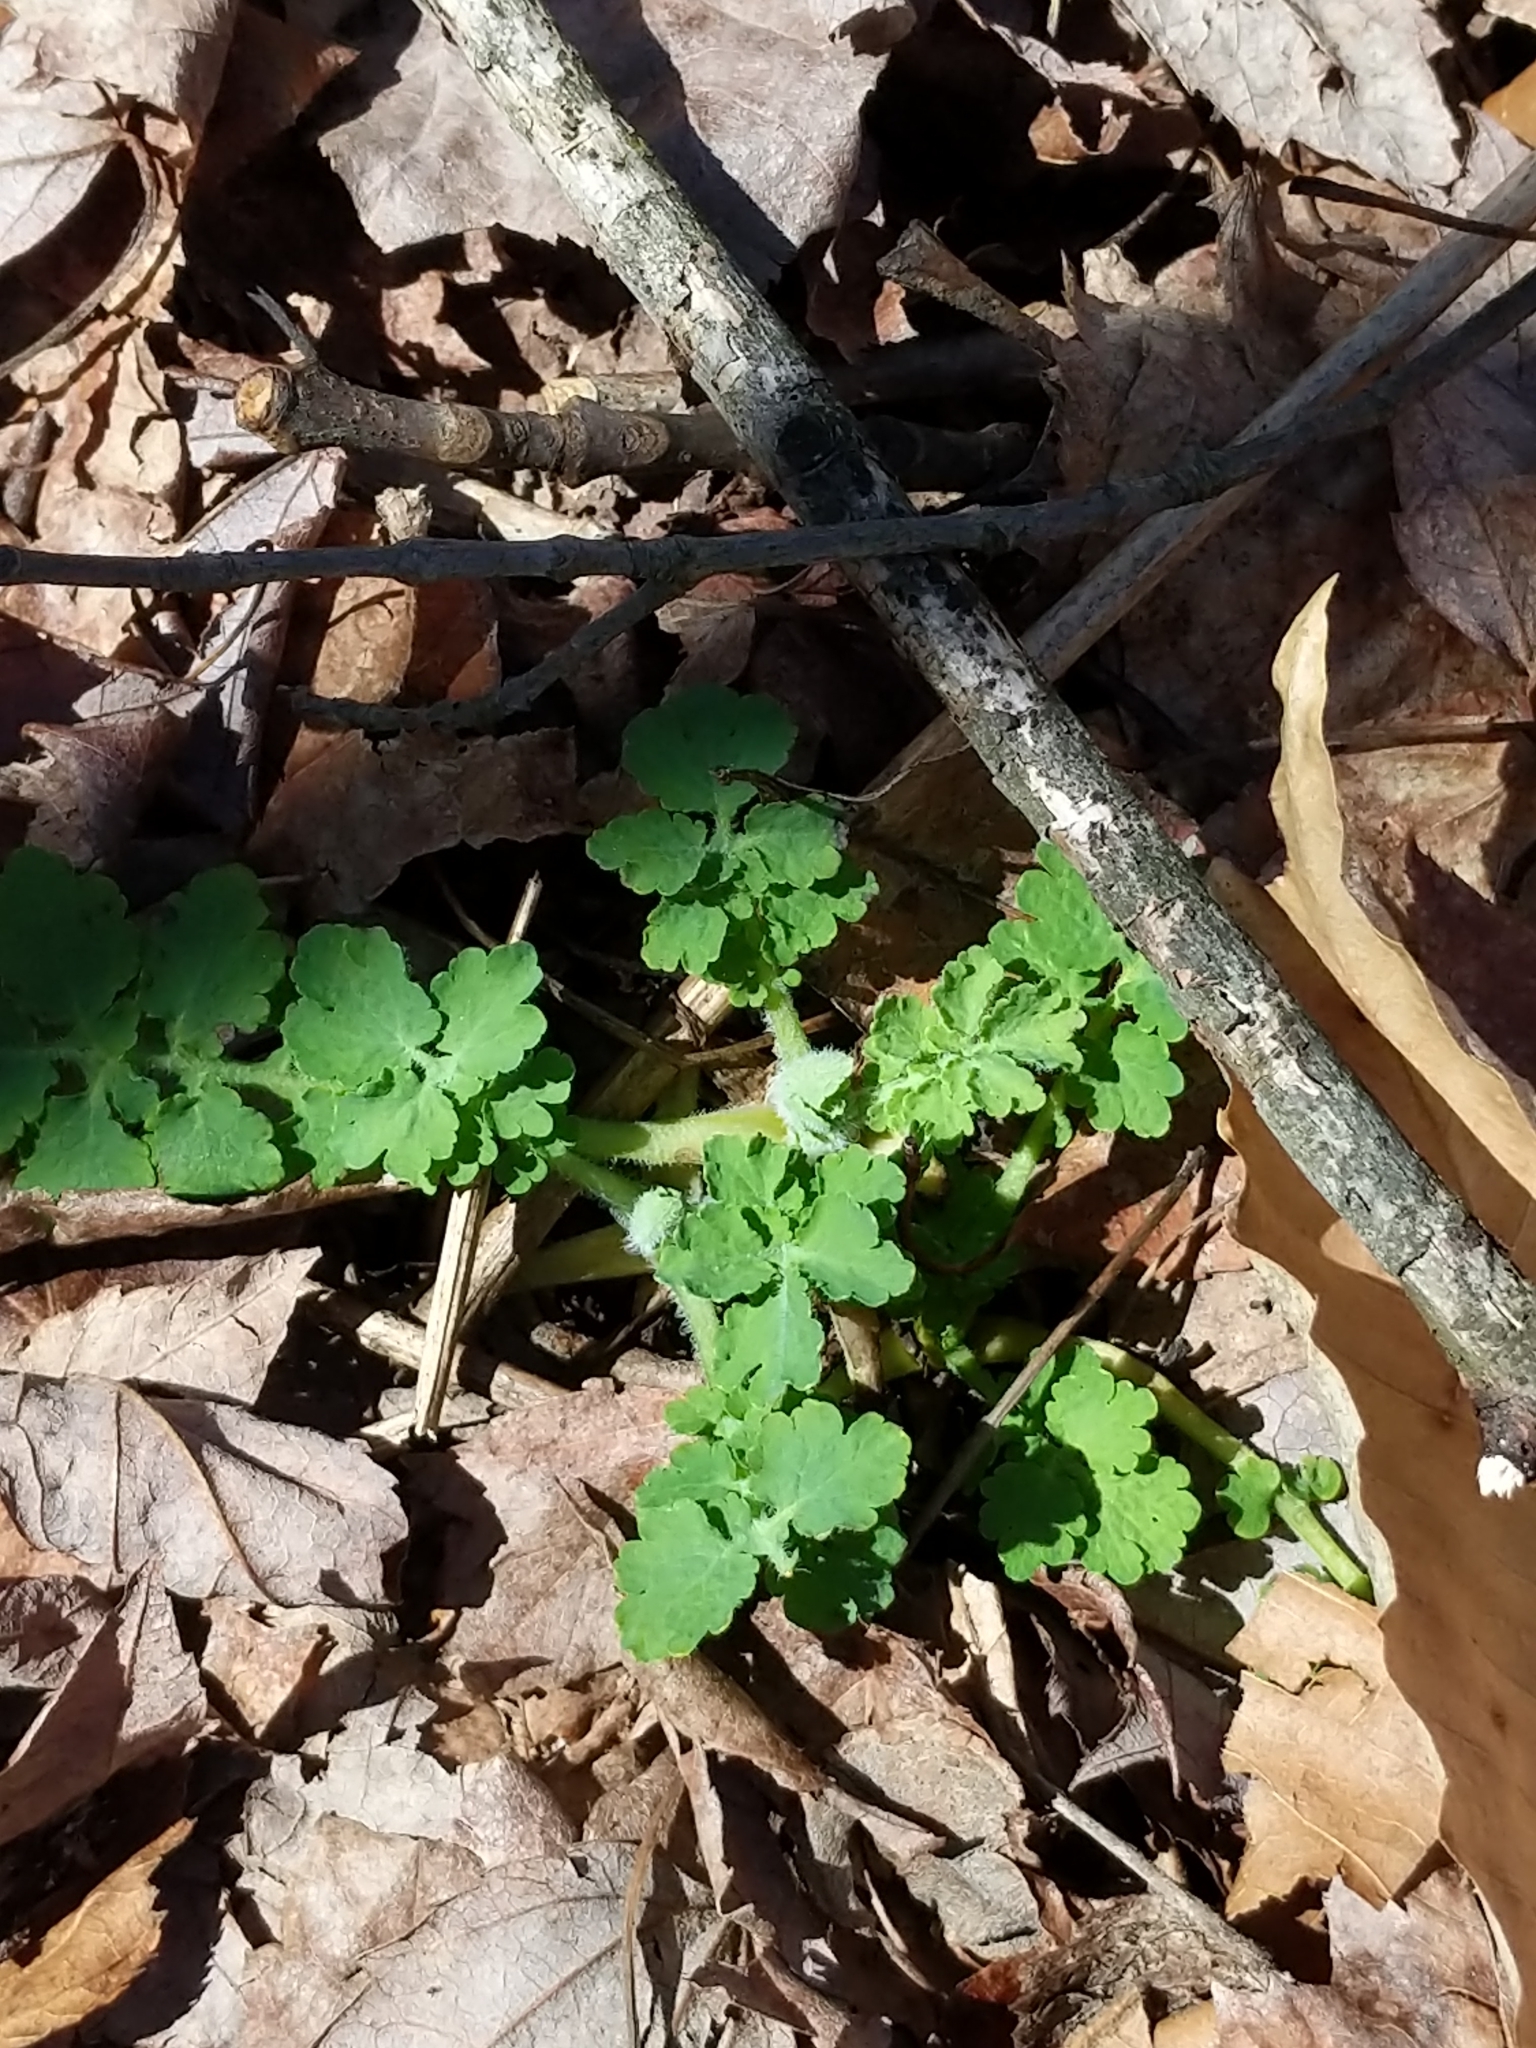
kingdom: Plantae
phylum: Tracheophyta
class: Magnoliopsida
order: Ranunculales
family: Papaveraceae
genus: Chelidonium
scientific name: Chelidonium majus
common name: Greater celandine
